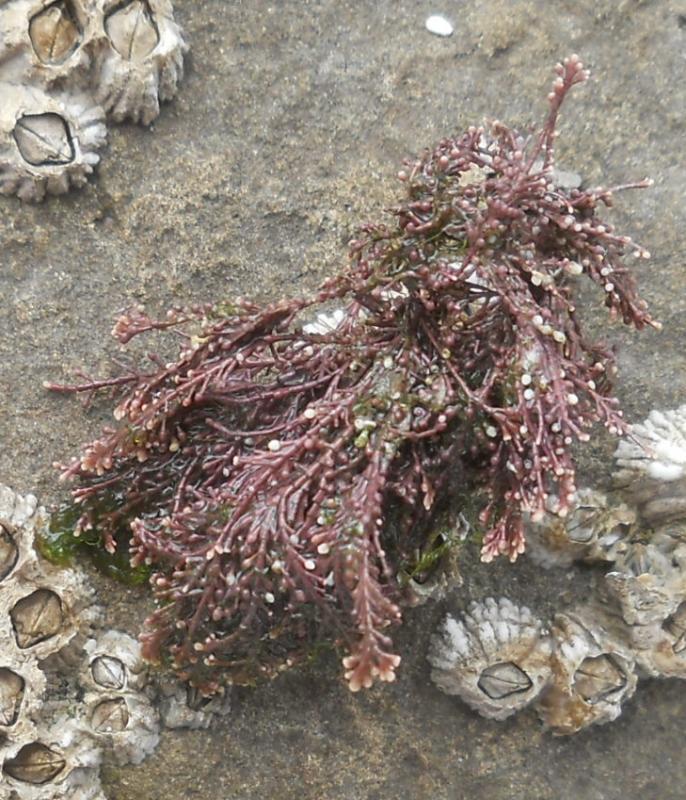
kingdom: Plantae
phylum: Rhodophyta
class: Florideophyceae
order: Corallinales
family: Corallinaceae
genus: Corallina
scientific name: Corallina officinalis
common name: Coral weed
